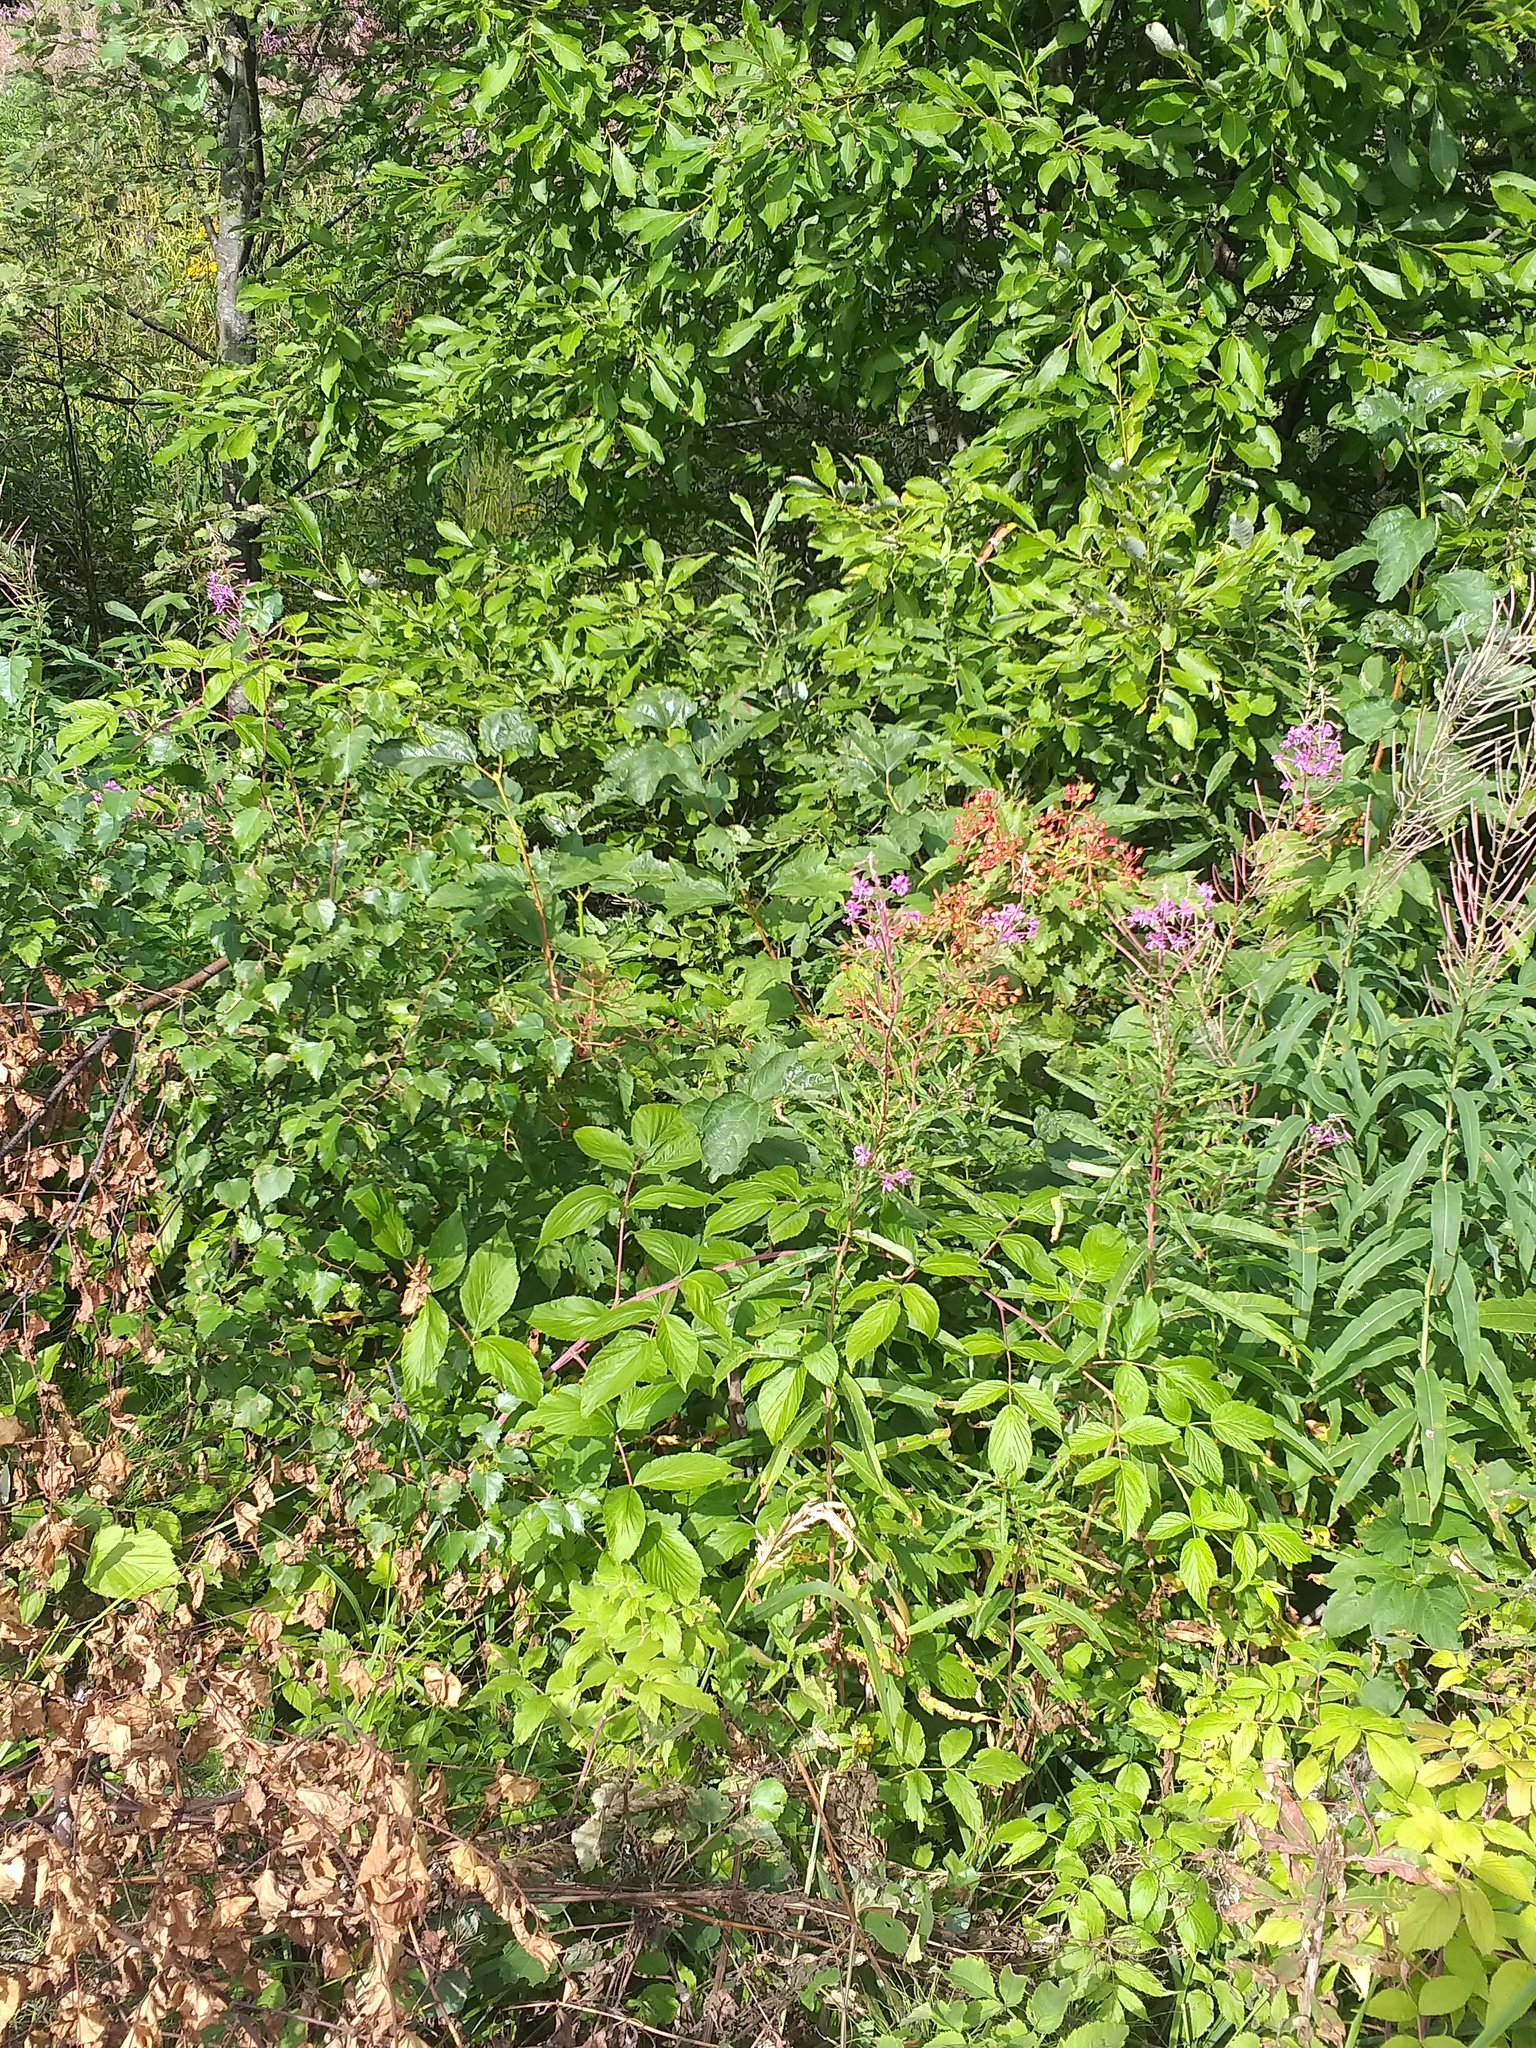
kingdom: Plantae
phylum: Tracheophyta
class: Magnoliopsida
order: Rosales
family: Rosaceae
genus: Rubus
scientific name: Rubus idaeus
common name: Raspberry
